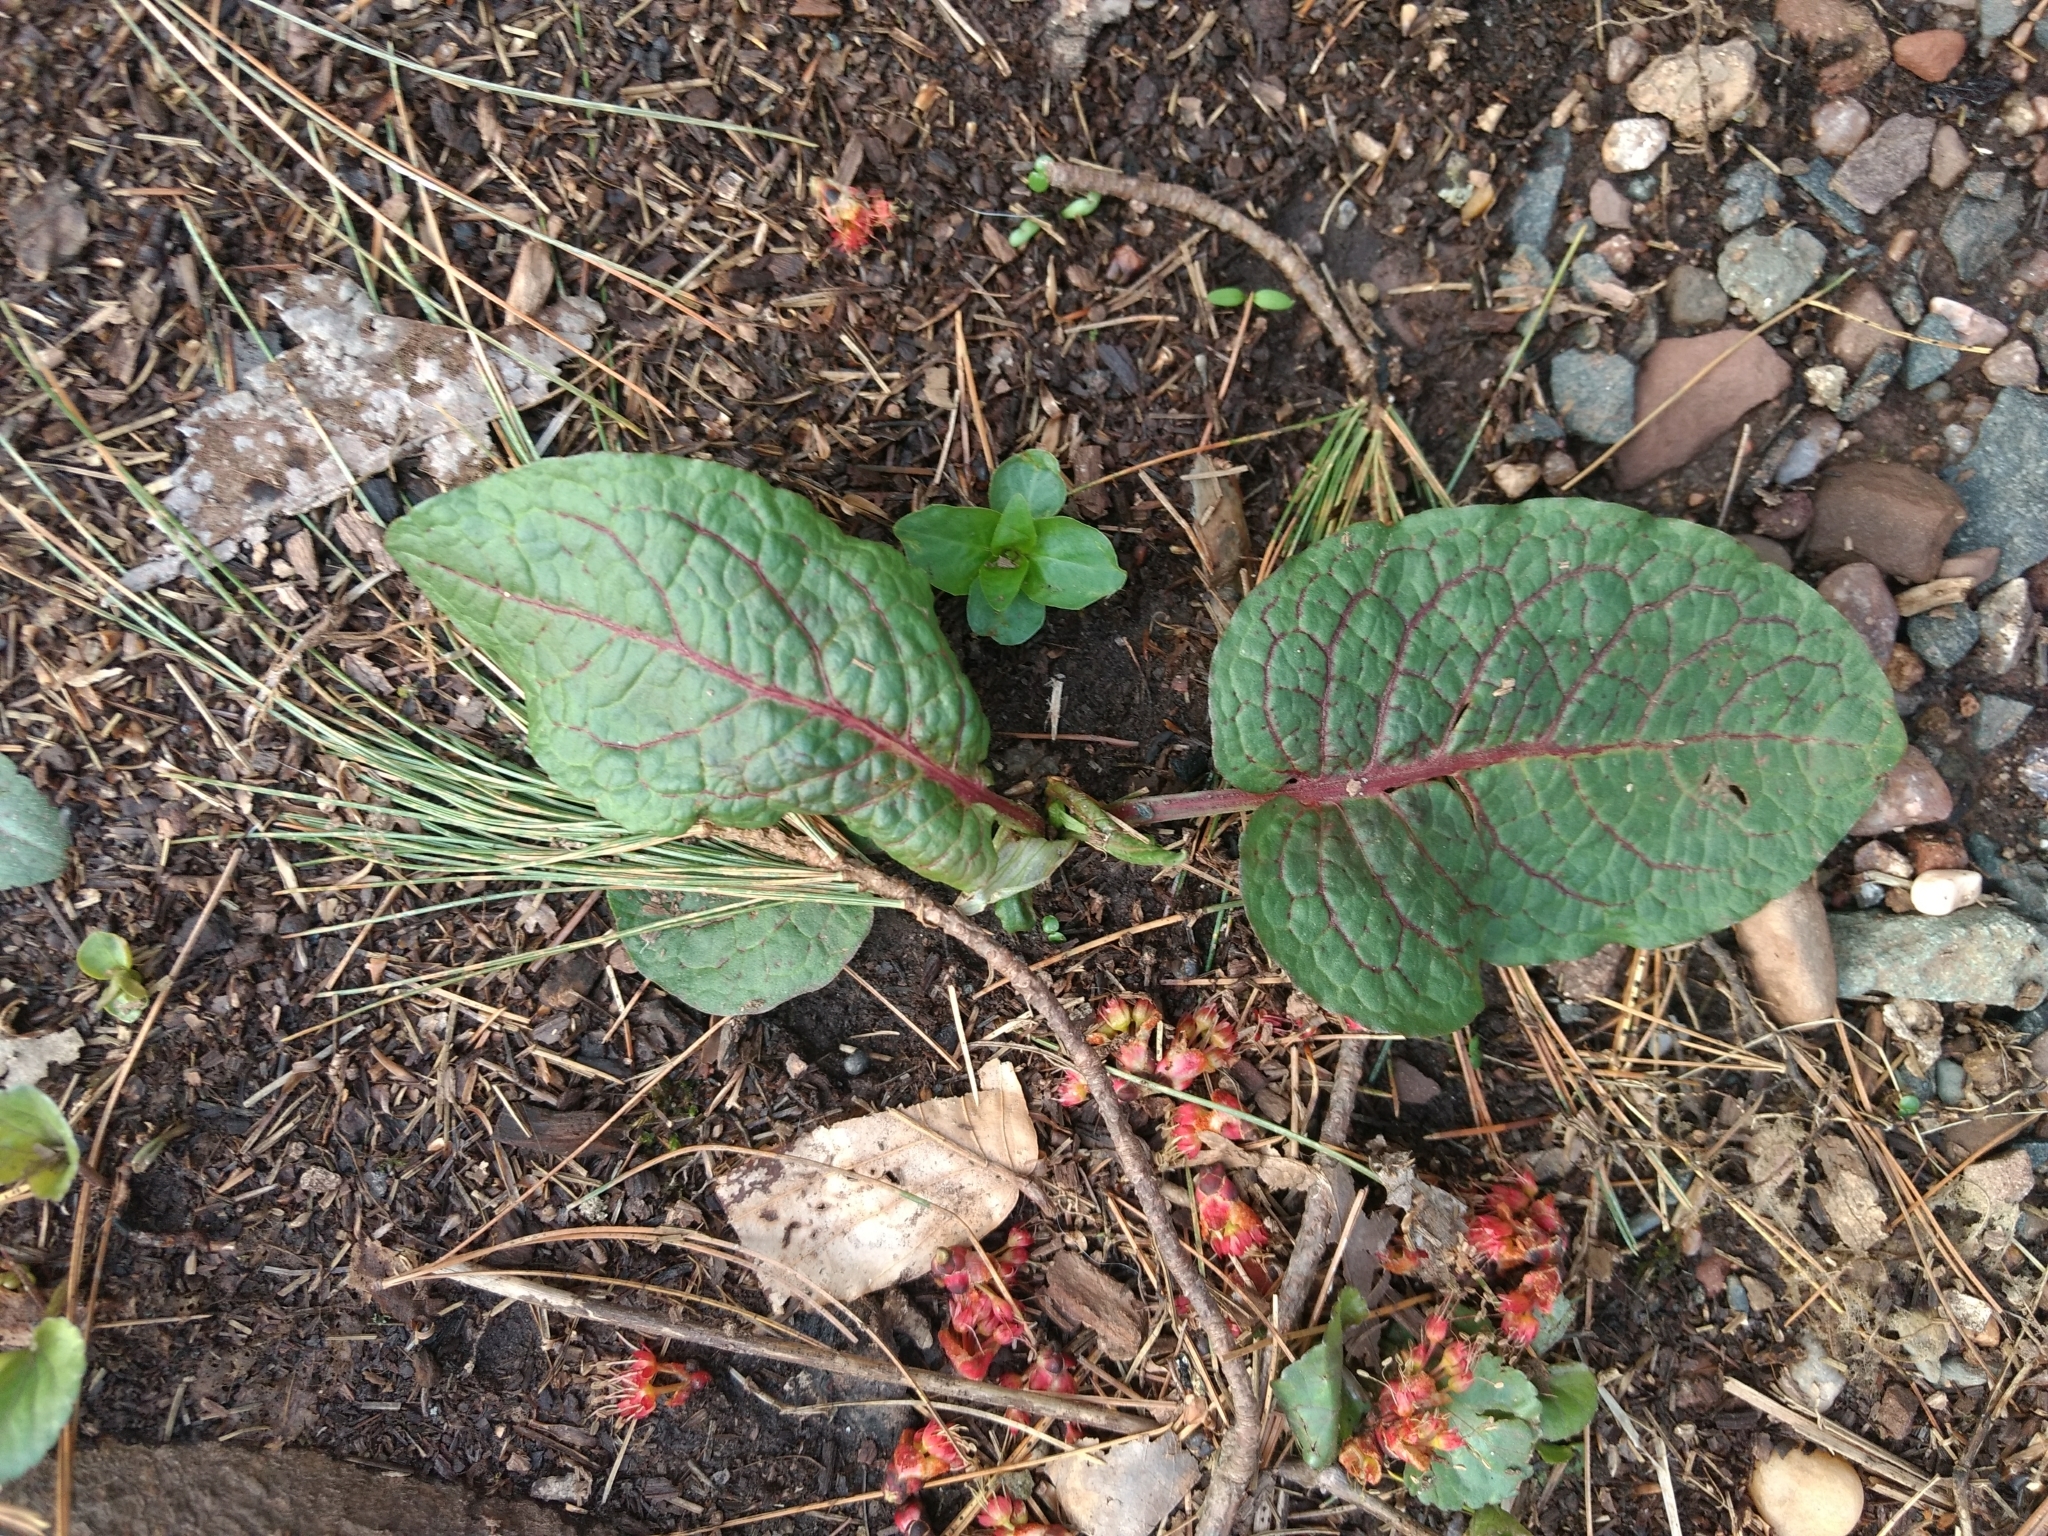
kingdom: Plantae
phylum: Tracheophyta
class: Magnoliopsida
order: Caryophyllales
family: Polygonaceae
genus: Rumex
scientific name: Rumex obtusifolius
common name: Bitter dock
